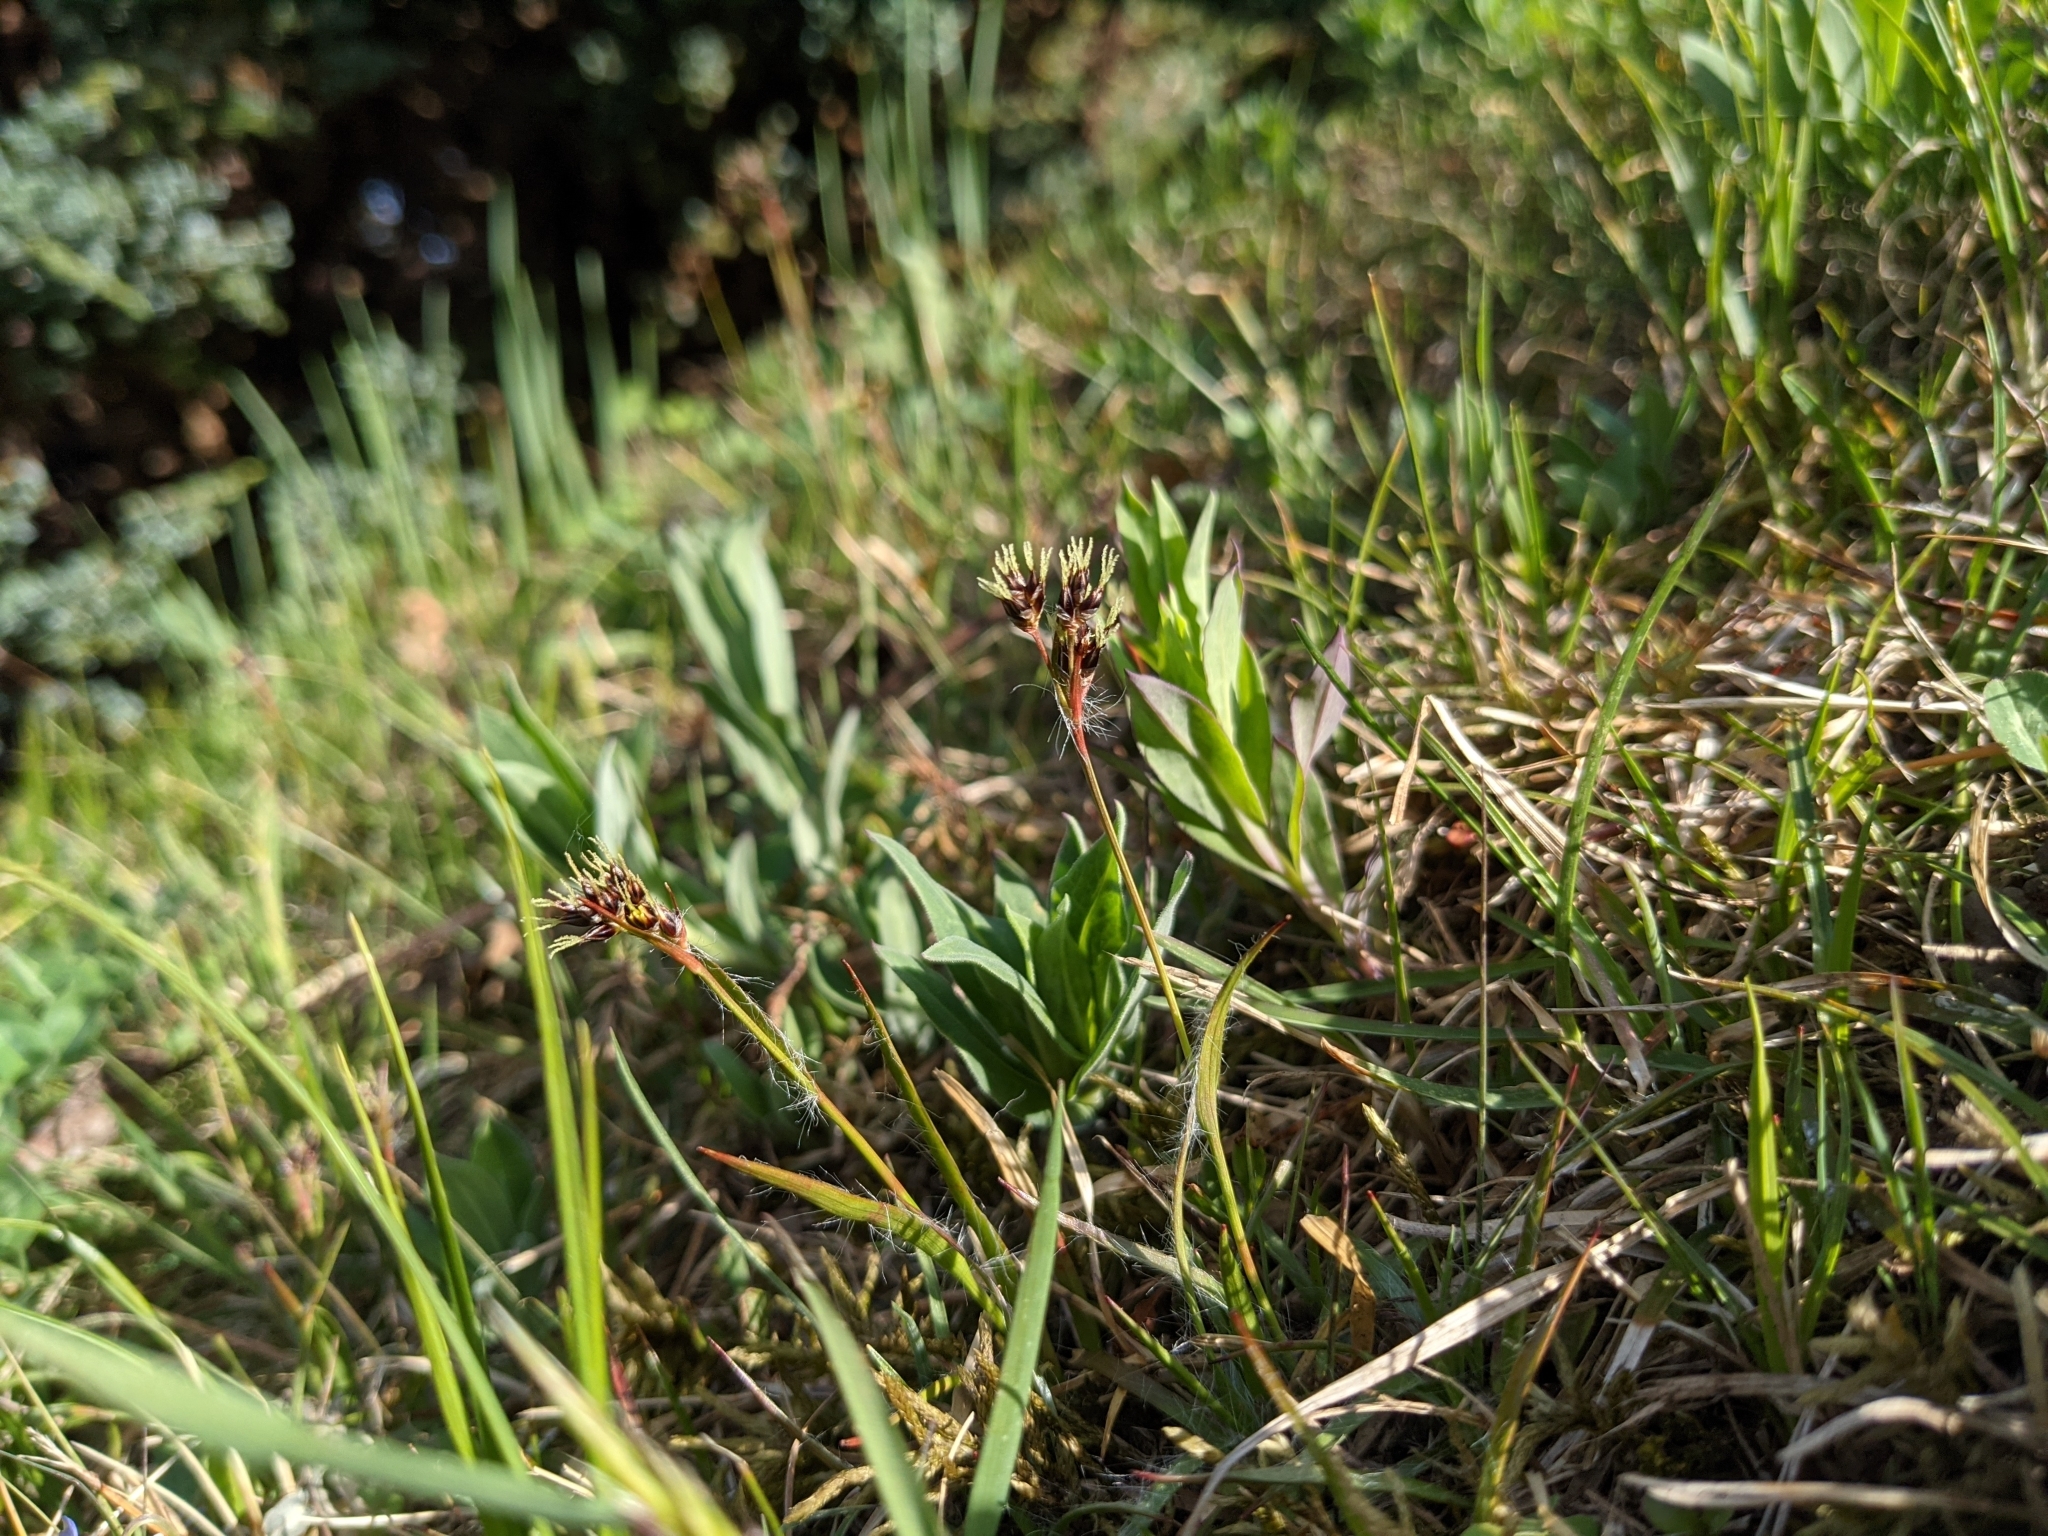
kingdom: Plantae
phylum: Tracheophyta
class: Liliopsida
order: Poales
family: Juncaceae
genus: Luzula
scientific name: Luzula campestris
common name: Field wood-rush
